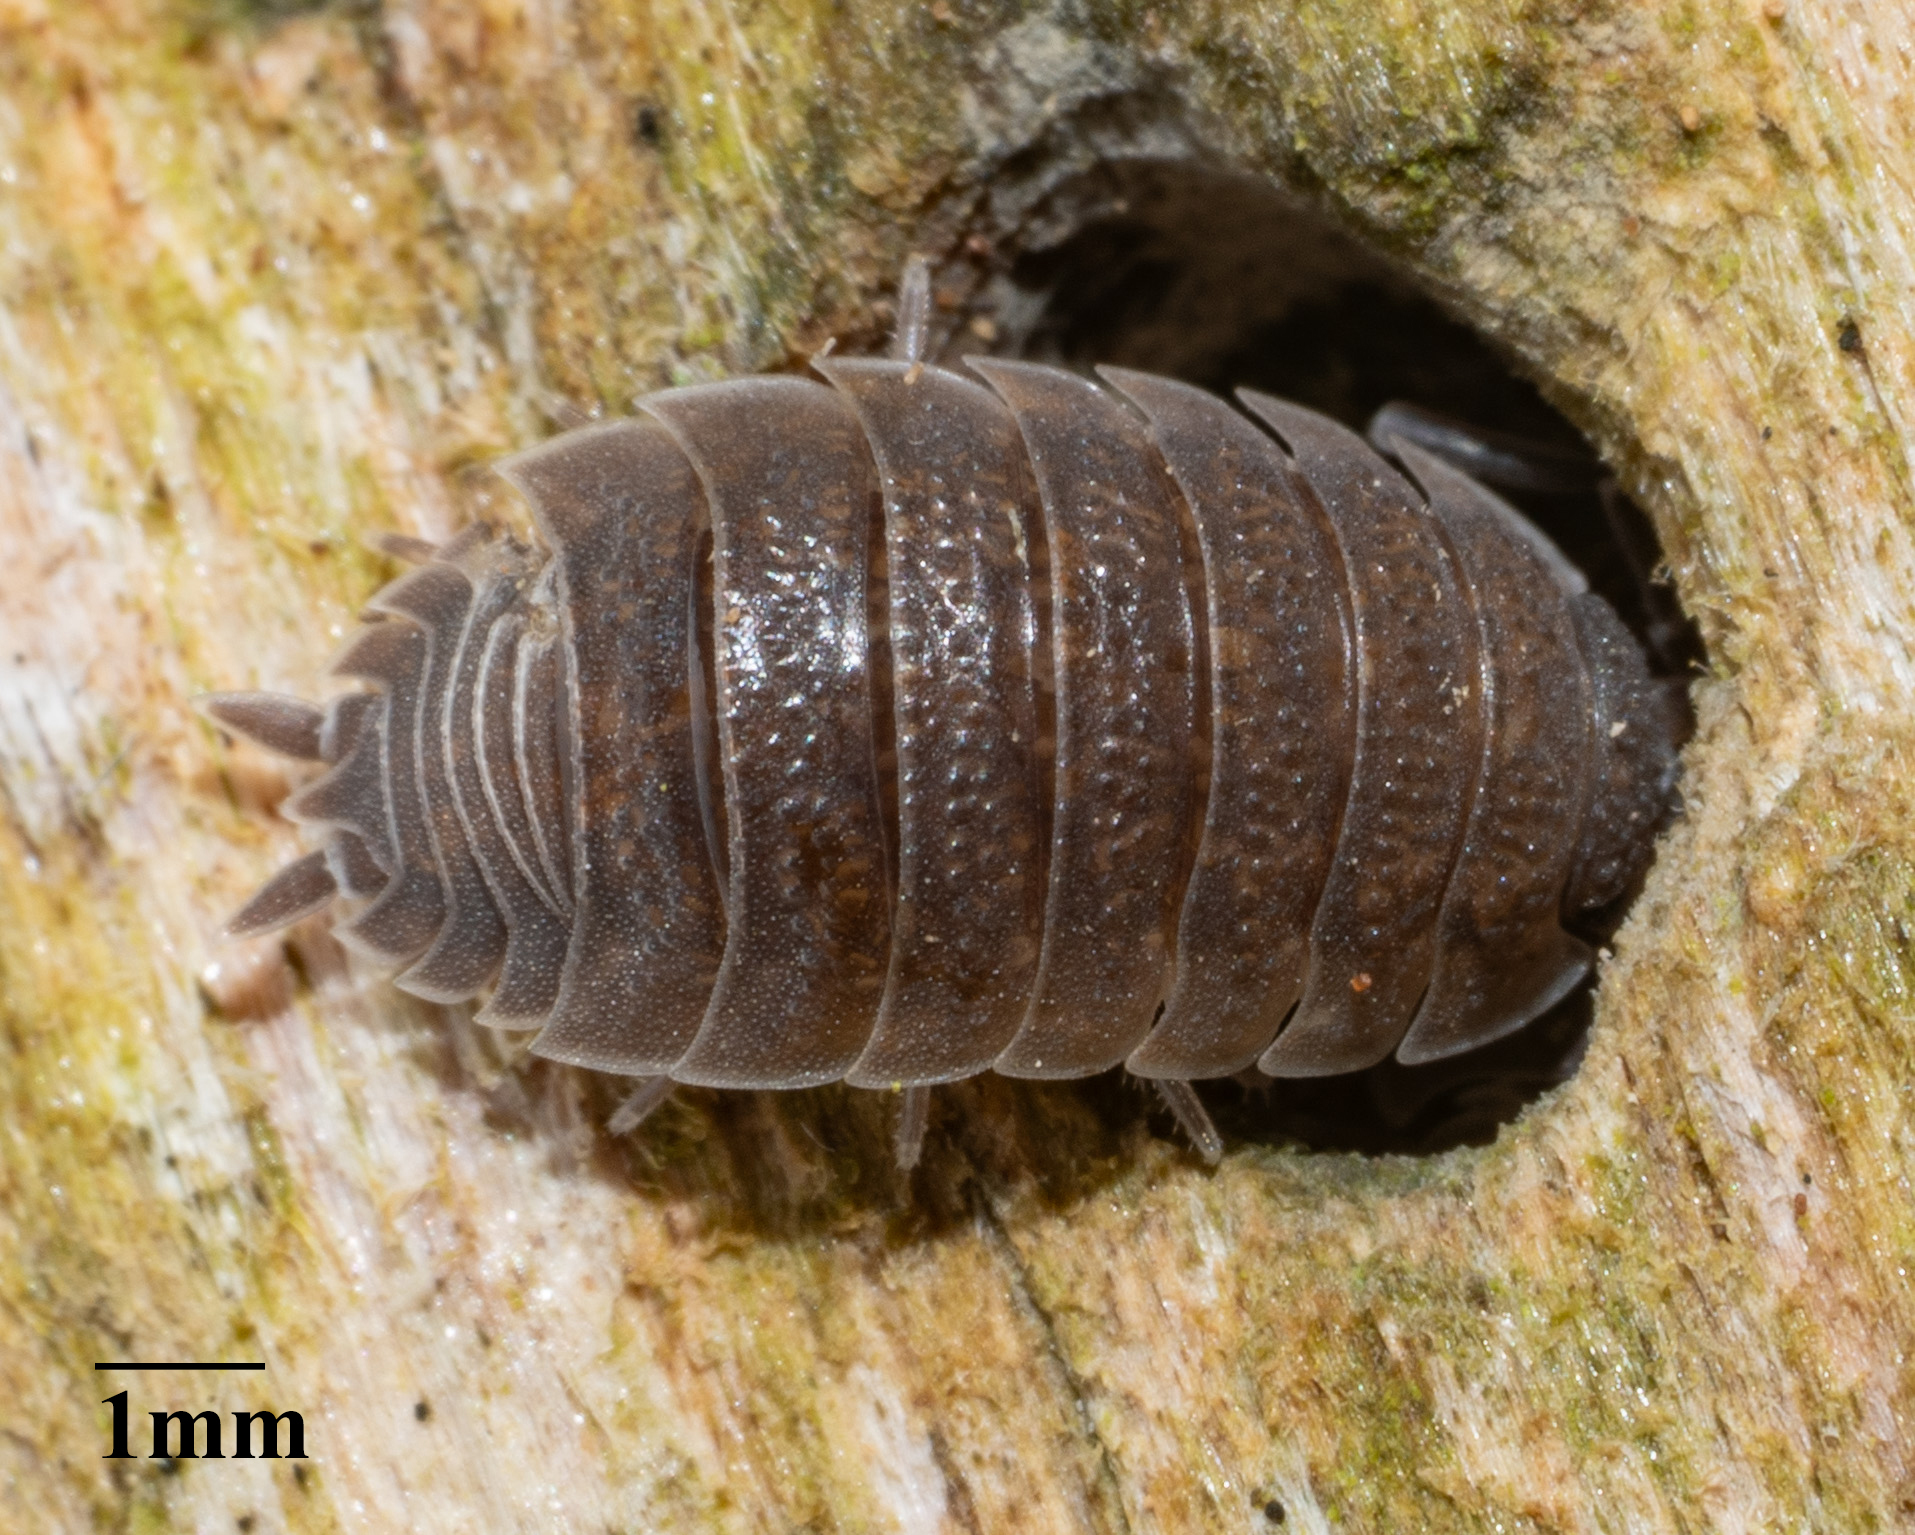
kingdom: Animalia
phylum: Arthropoda
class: Malacostraca
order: Isopoda
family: Porcellionidae
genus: Porcellio
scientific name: Porcellio scaber
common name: Common rough woodlouse
